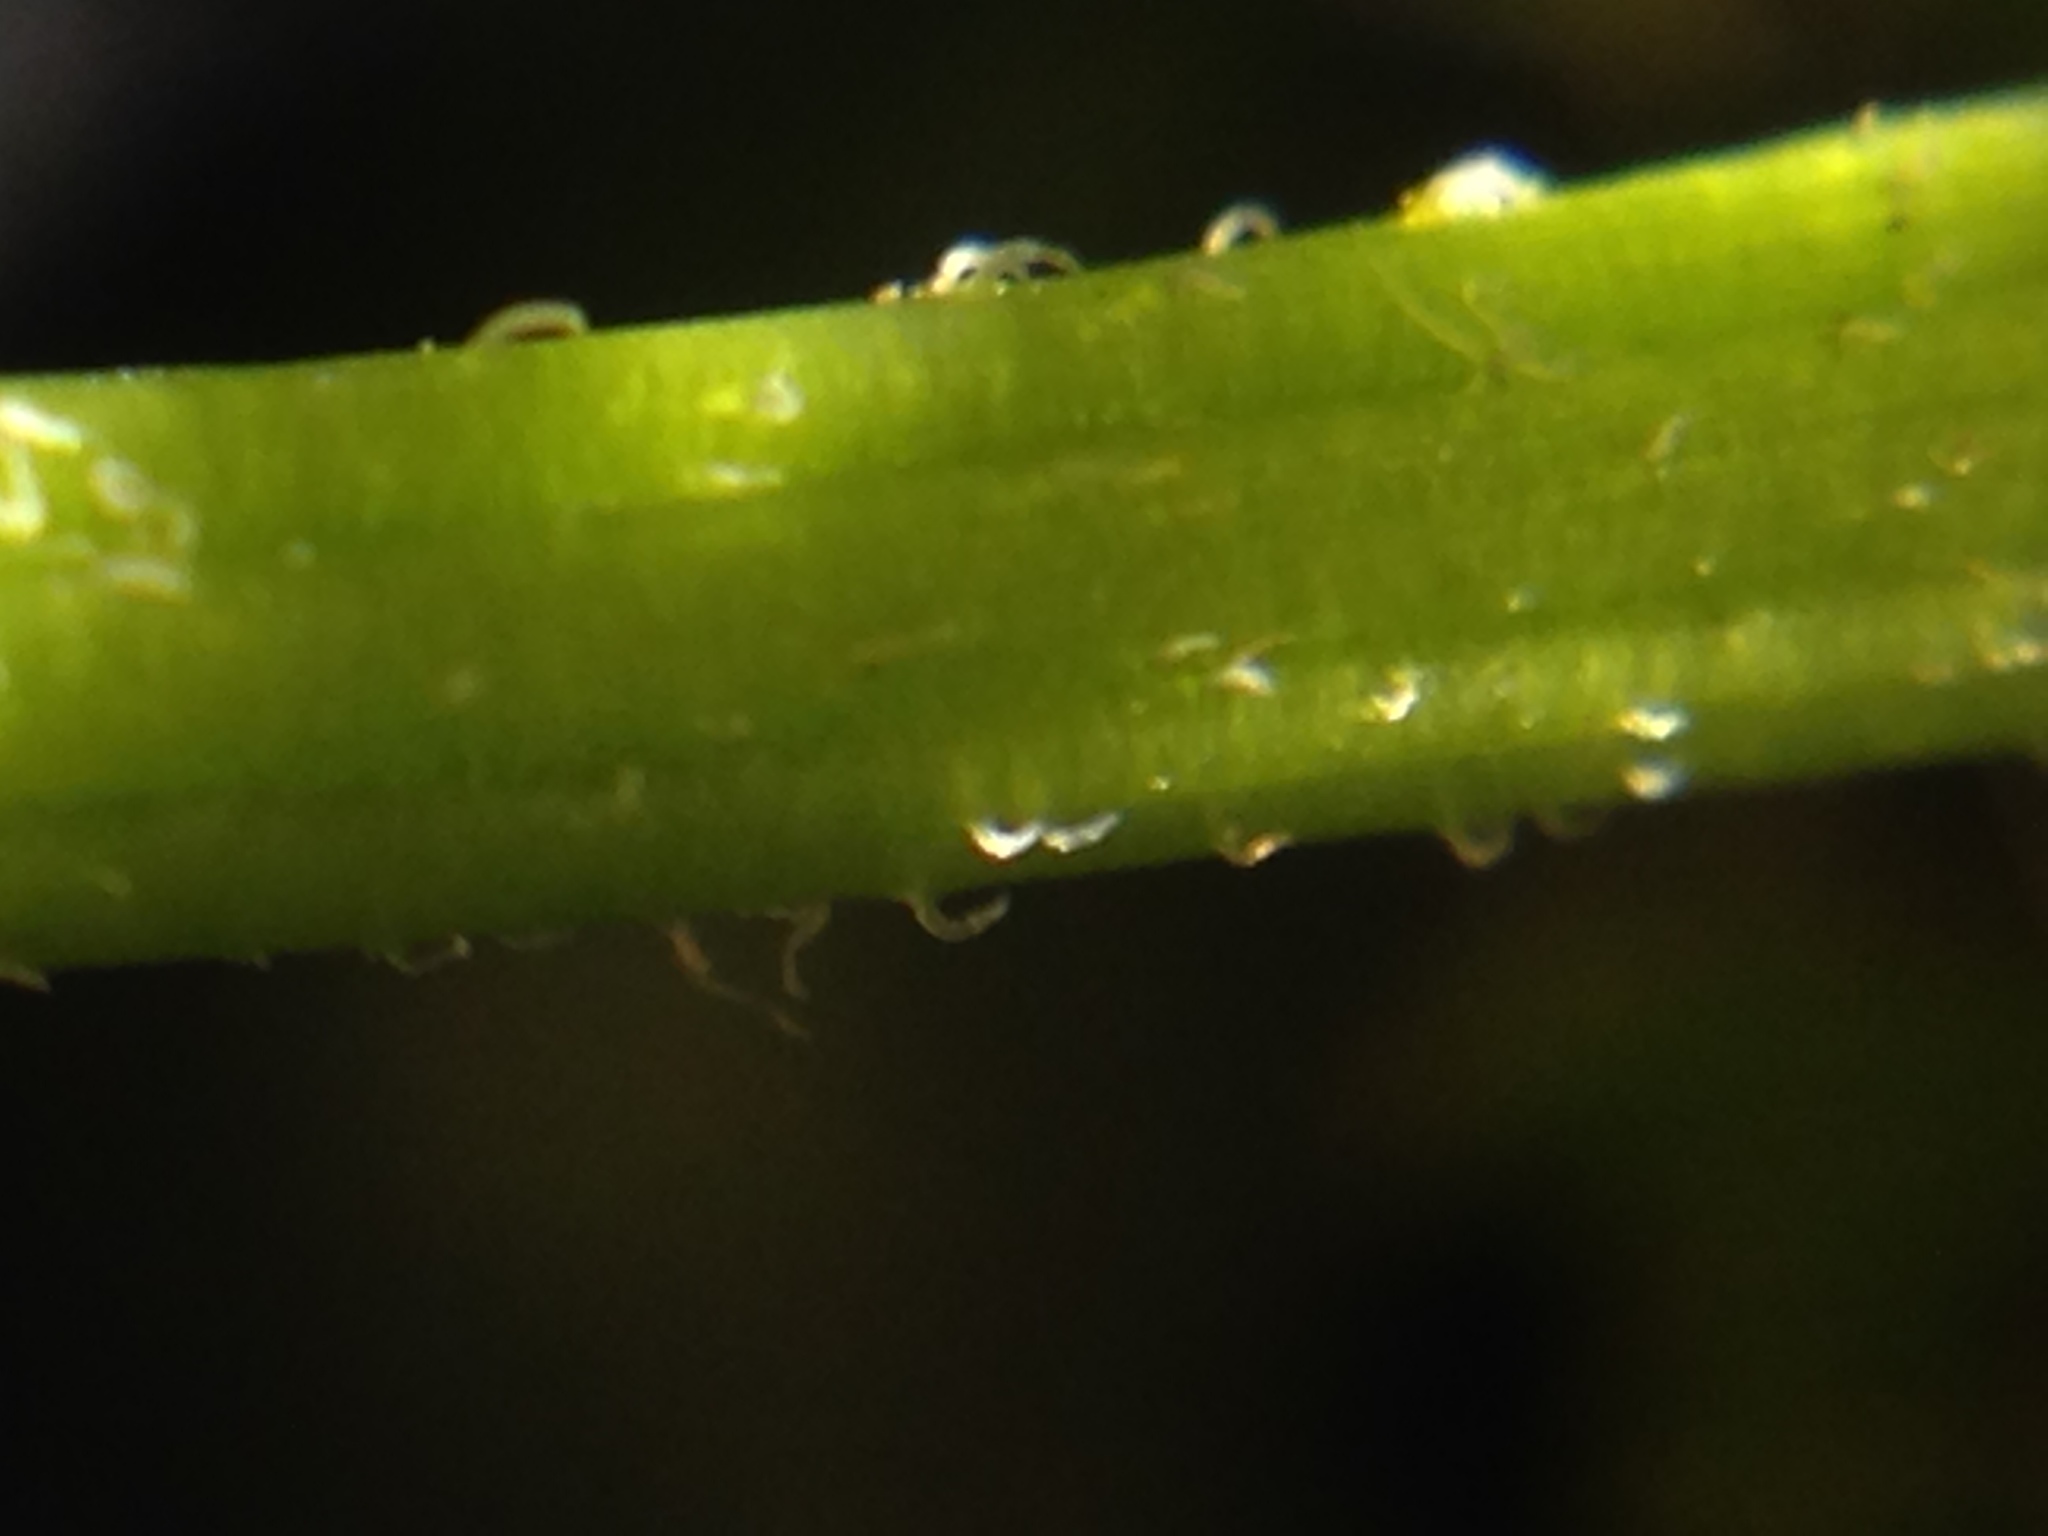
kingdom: Plantae
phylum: Tracheophyta
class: Magnoliopsida
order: Asterales
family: Asteraceae
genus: Bidens
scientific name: Bidens trichosperma
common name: Crowned beggarticks
